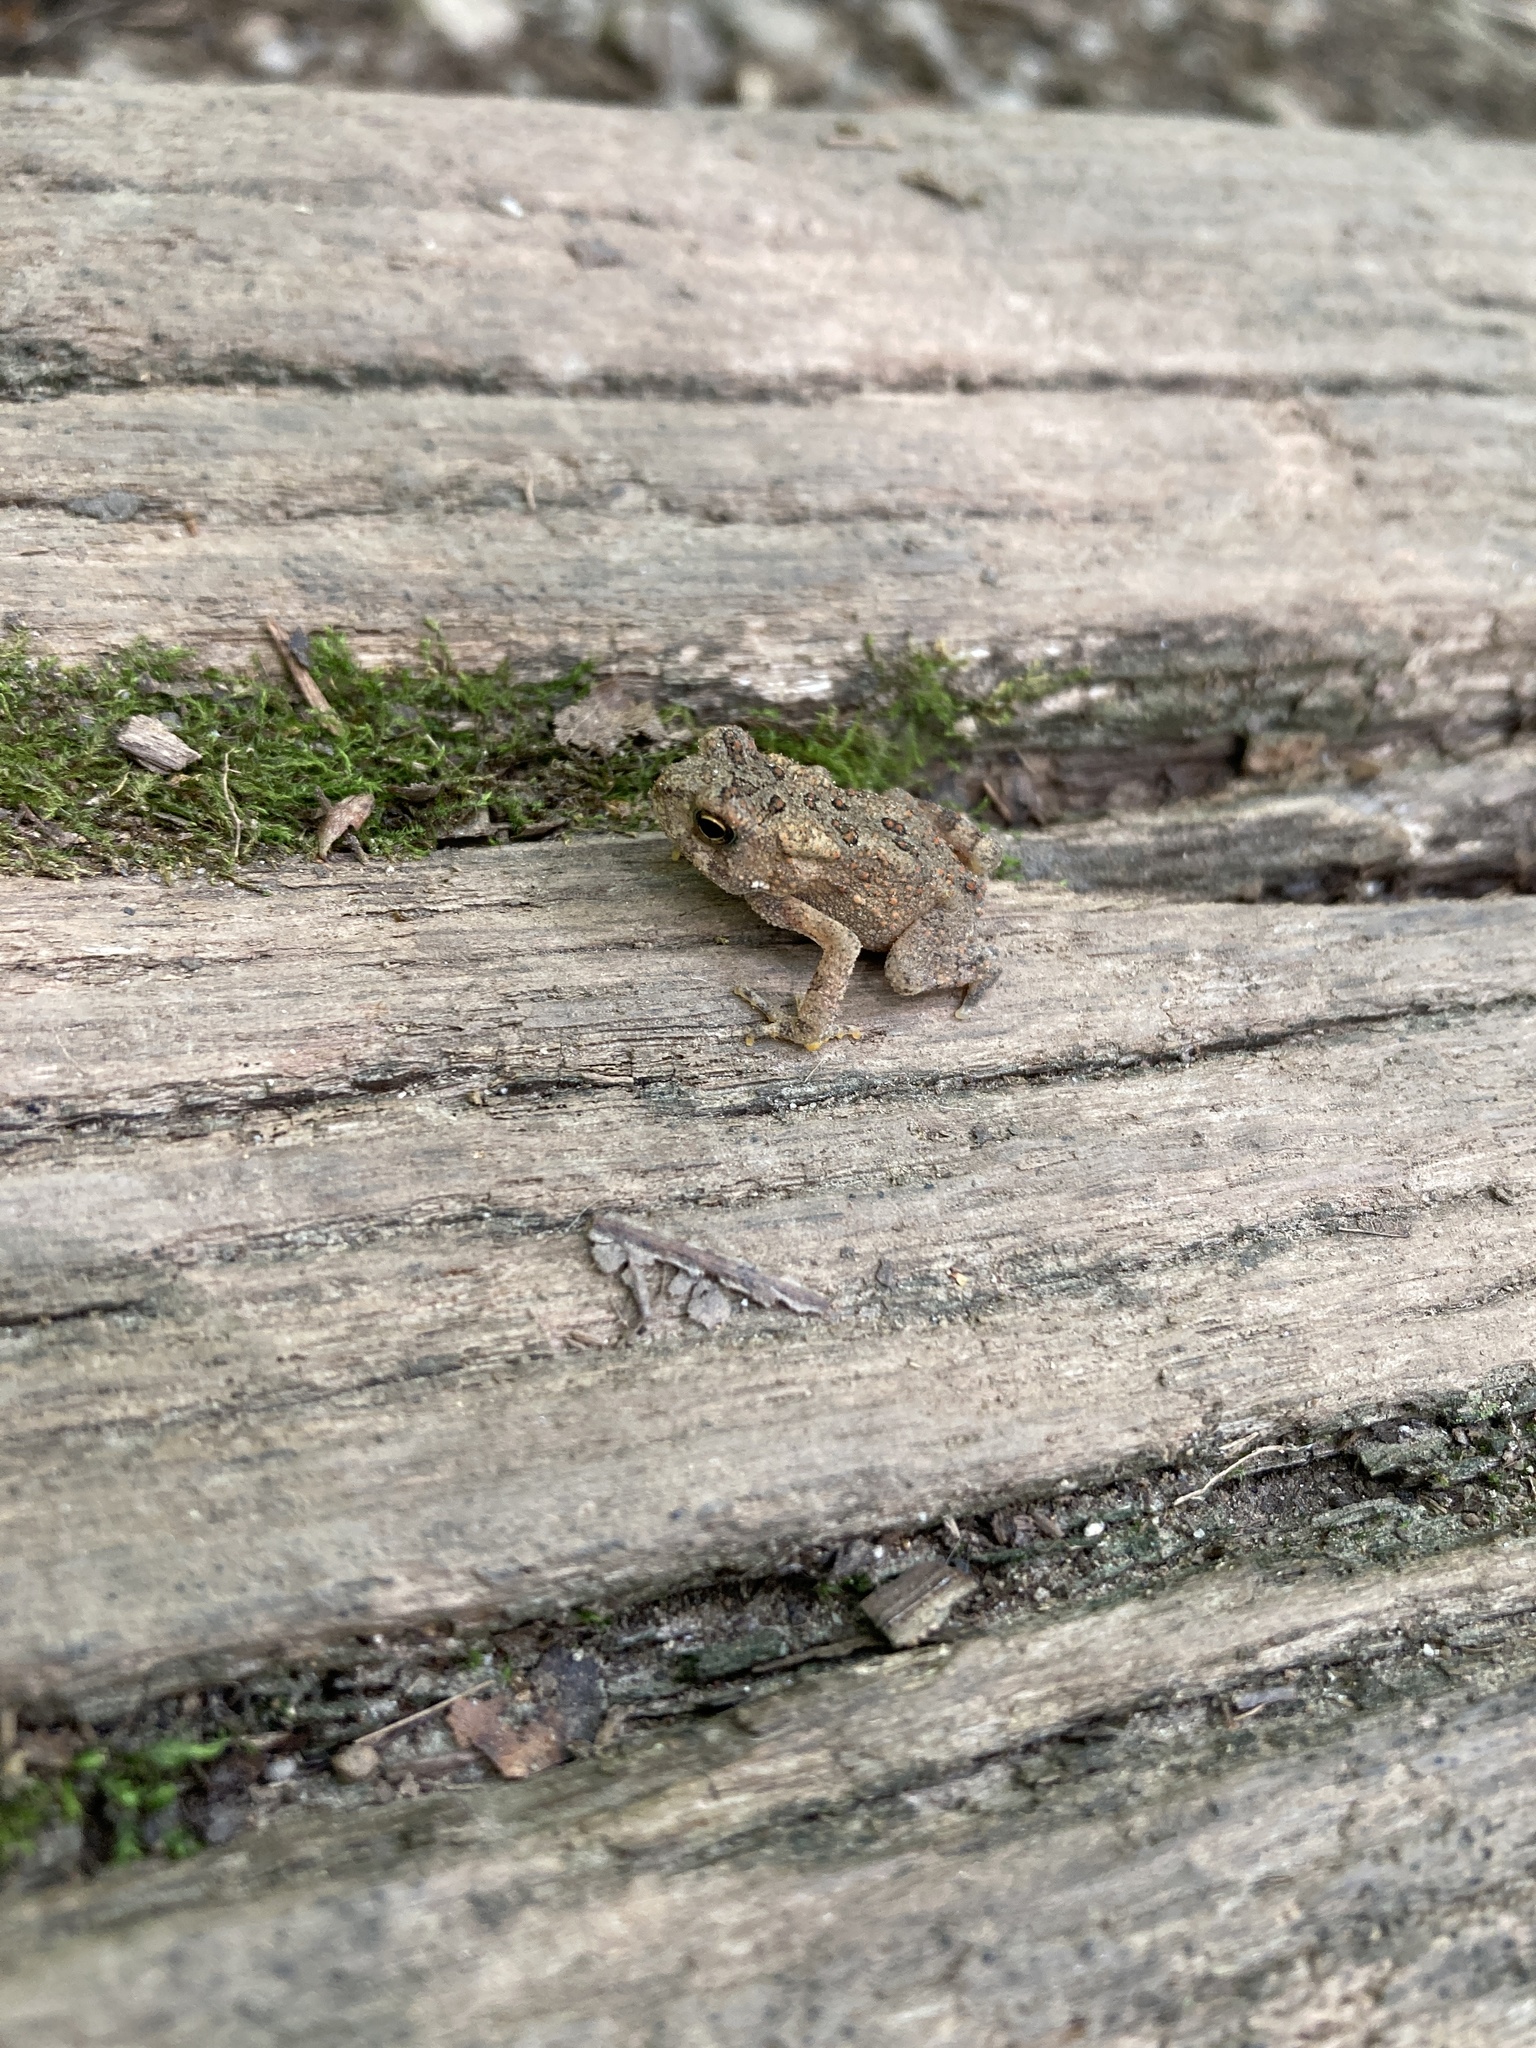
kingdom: Animalia
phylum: Chordata
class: Amphibia
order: Anura
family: Bufonidae
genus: Anaxyrus
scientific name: Anaxyrus americanus
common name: American toad
